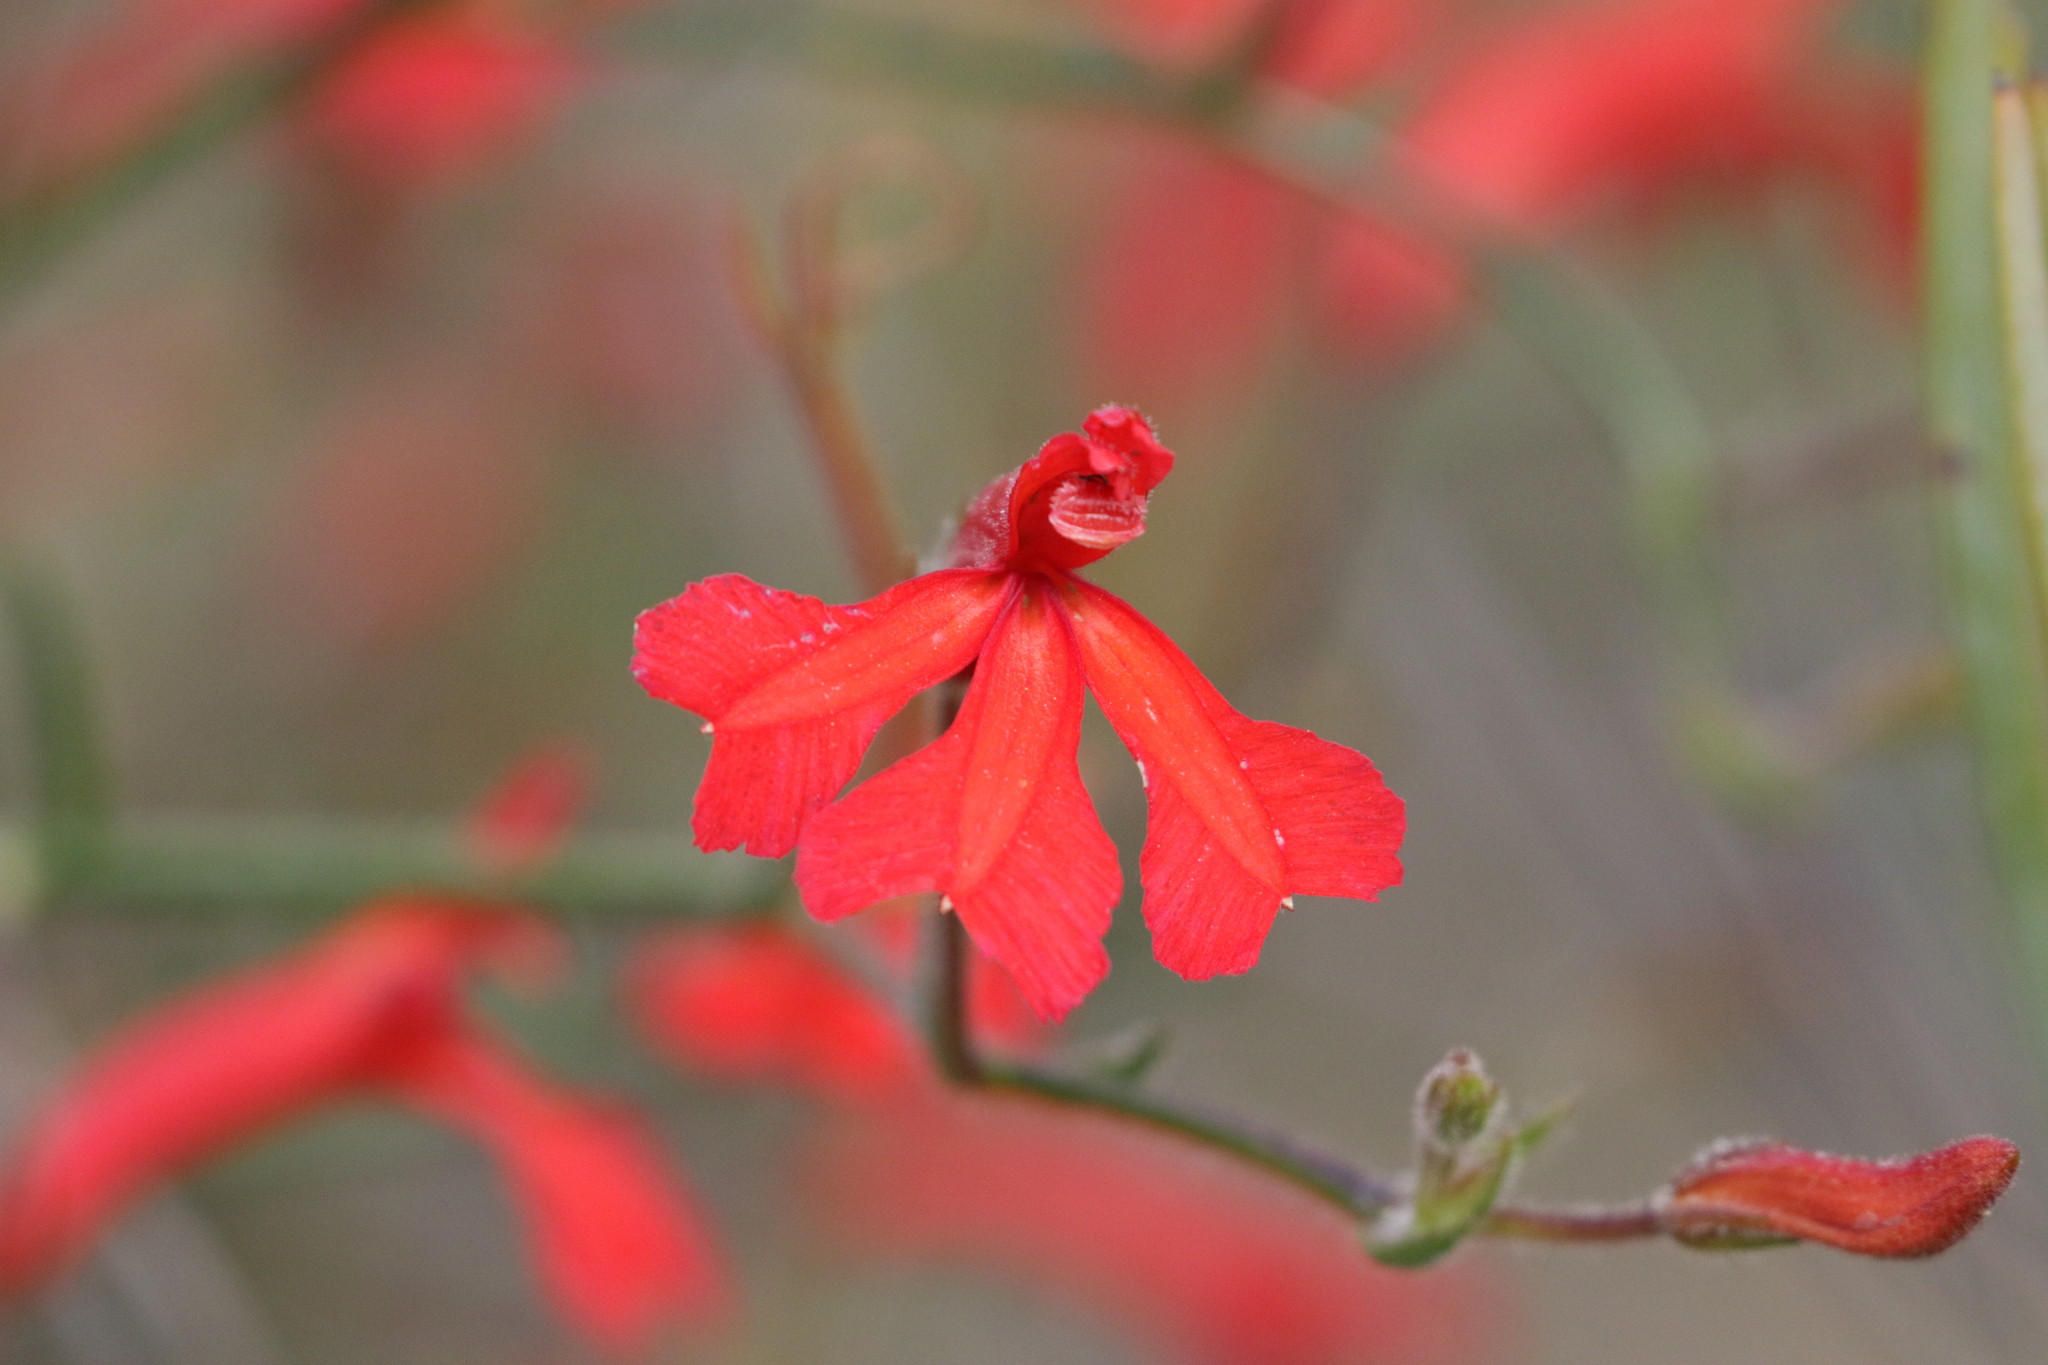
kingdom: Plantae
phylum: Tracheophyta
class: Magnoliopsida
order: Asterales
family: Goodeniaceae
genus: Lechenaultia
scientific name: Lechenaultia hirsuta
